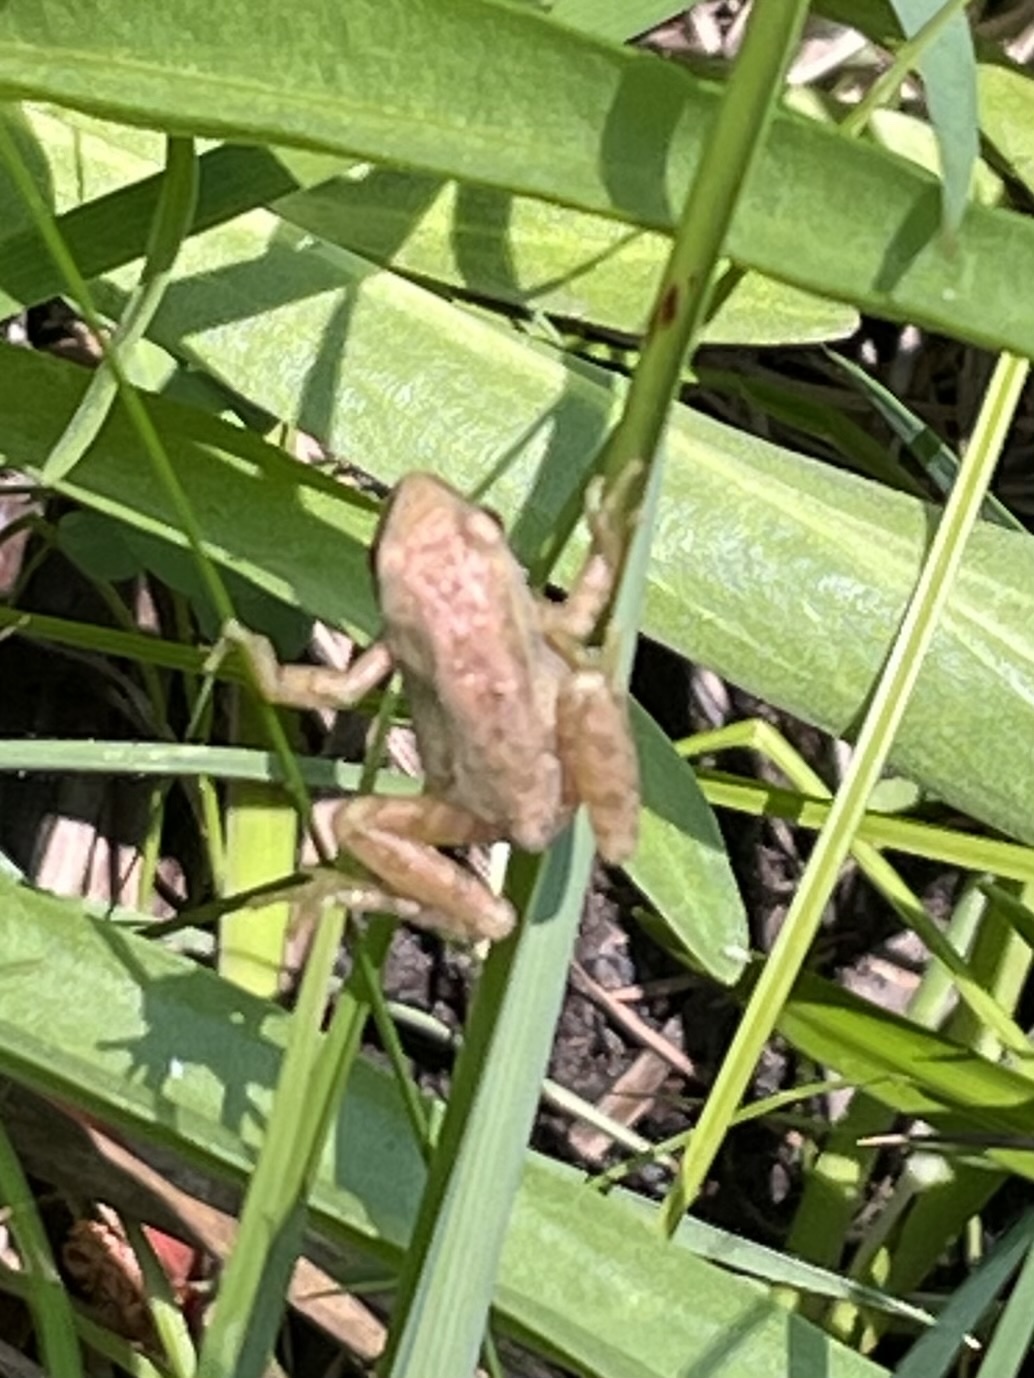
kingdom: Animalia
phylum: Chordata
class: Amphibia
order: Anura
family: Hylidae
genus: Pseudacris
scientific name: Pseudacris regilla
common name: Pacific chorus frog
